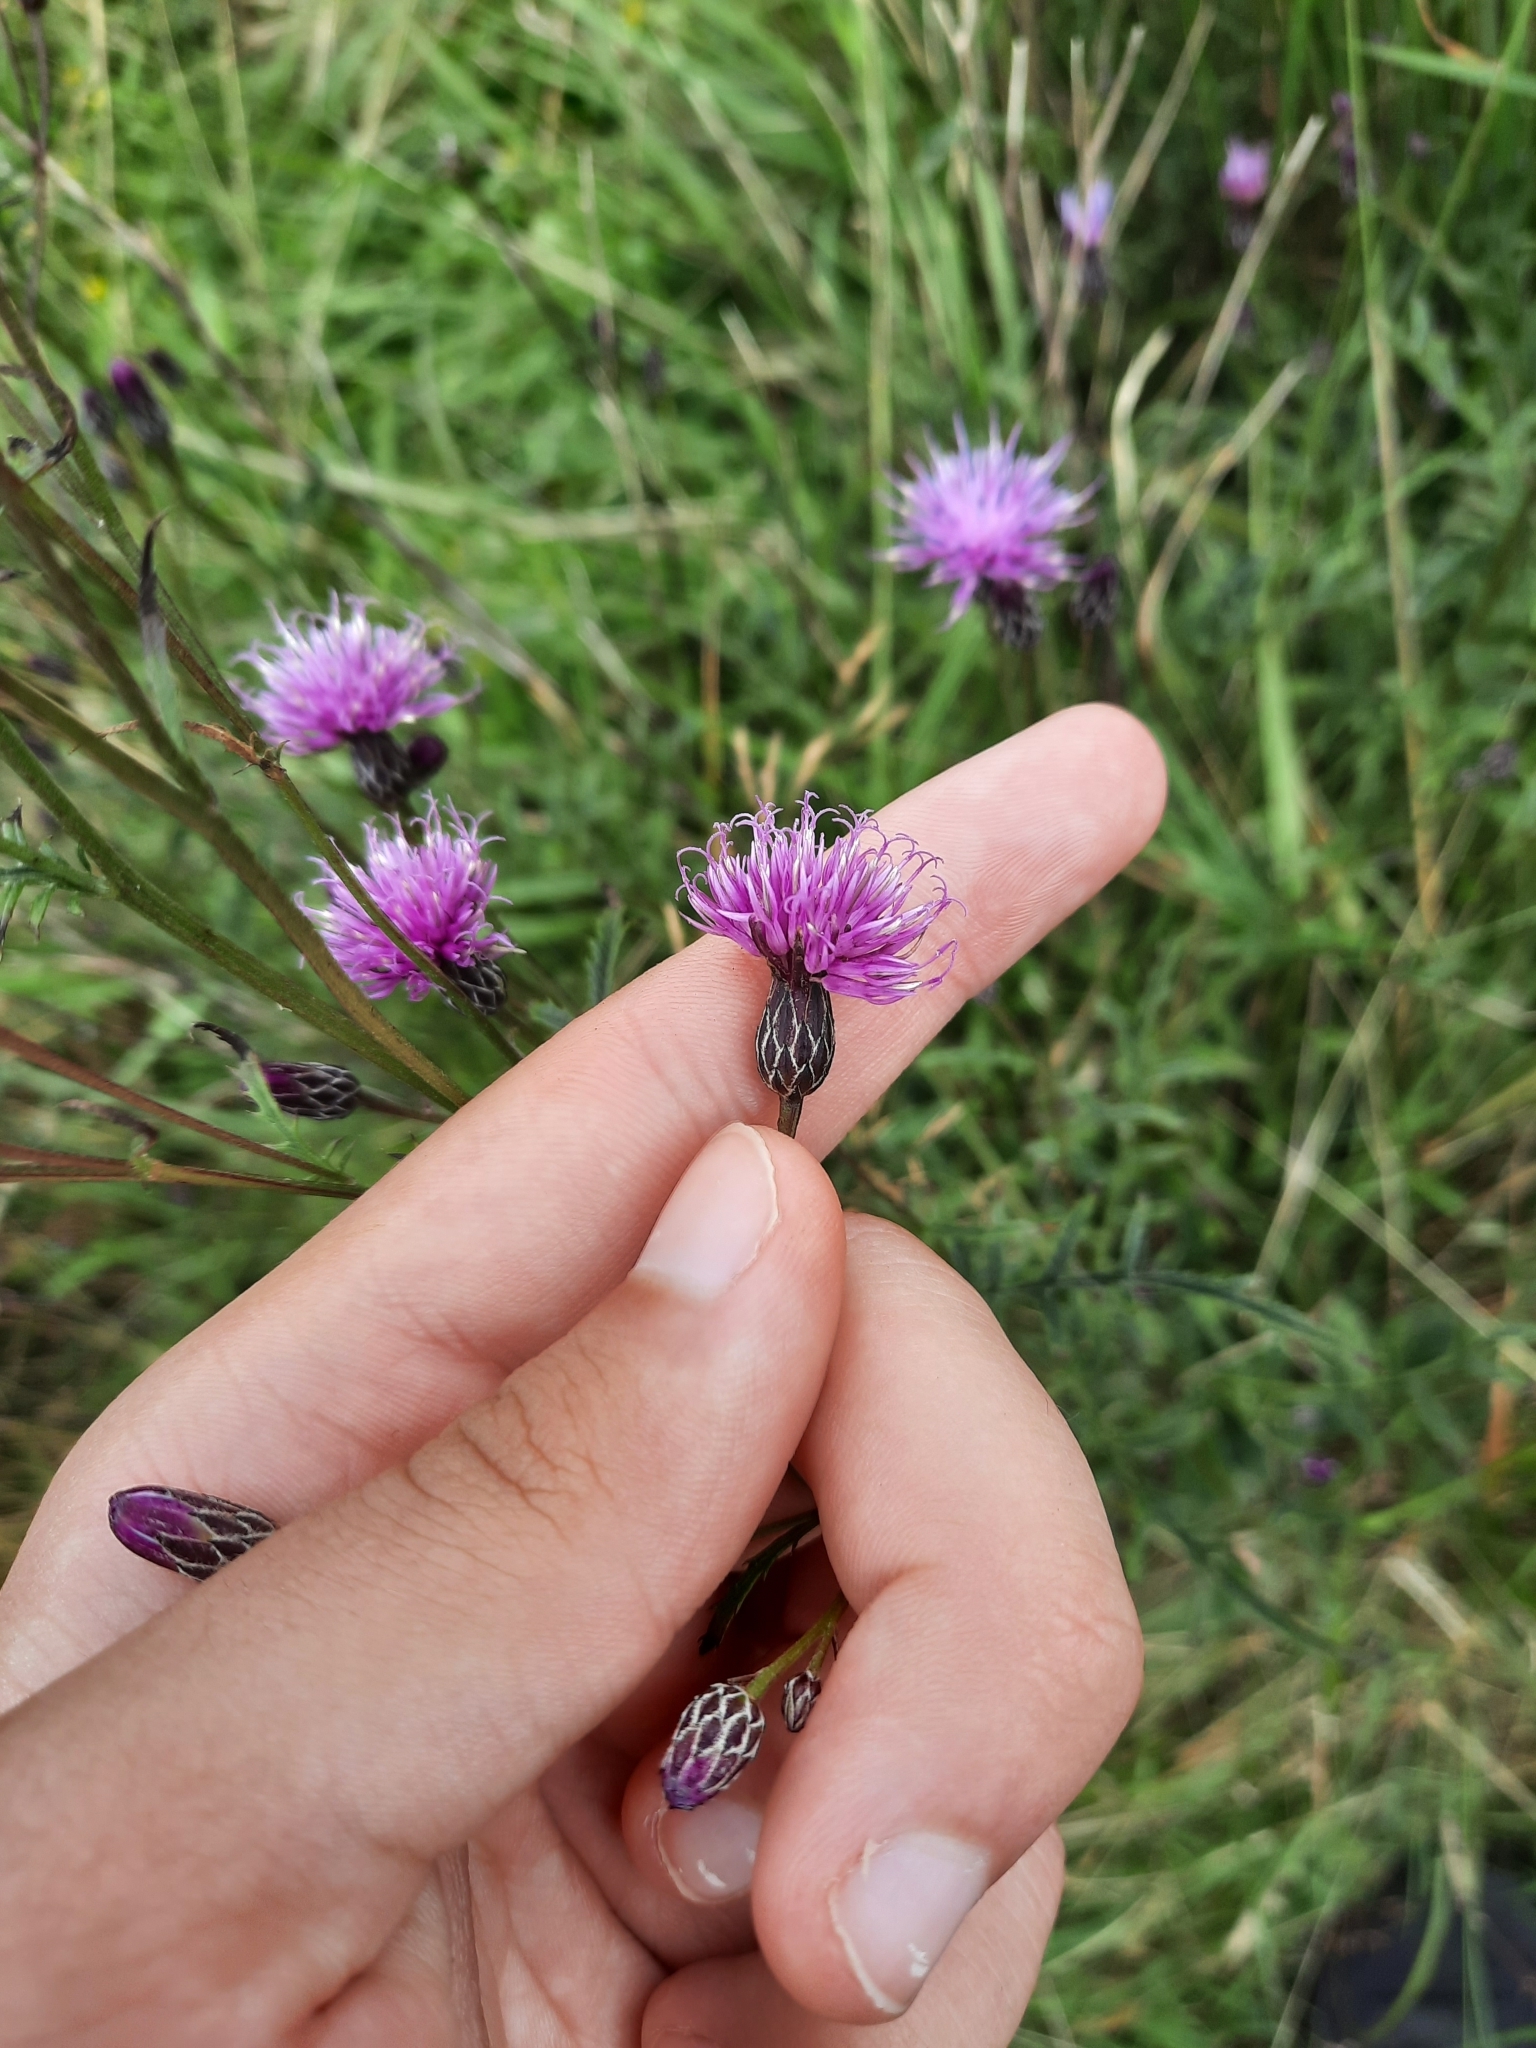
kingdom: Plantae
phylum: Tracheophyta
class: Magnoliopsida
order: Asterales
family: Asteraceae
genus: Serratula
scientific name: Serratula tinctoria
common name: Saw-wort
